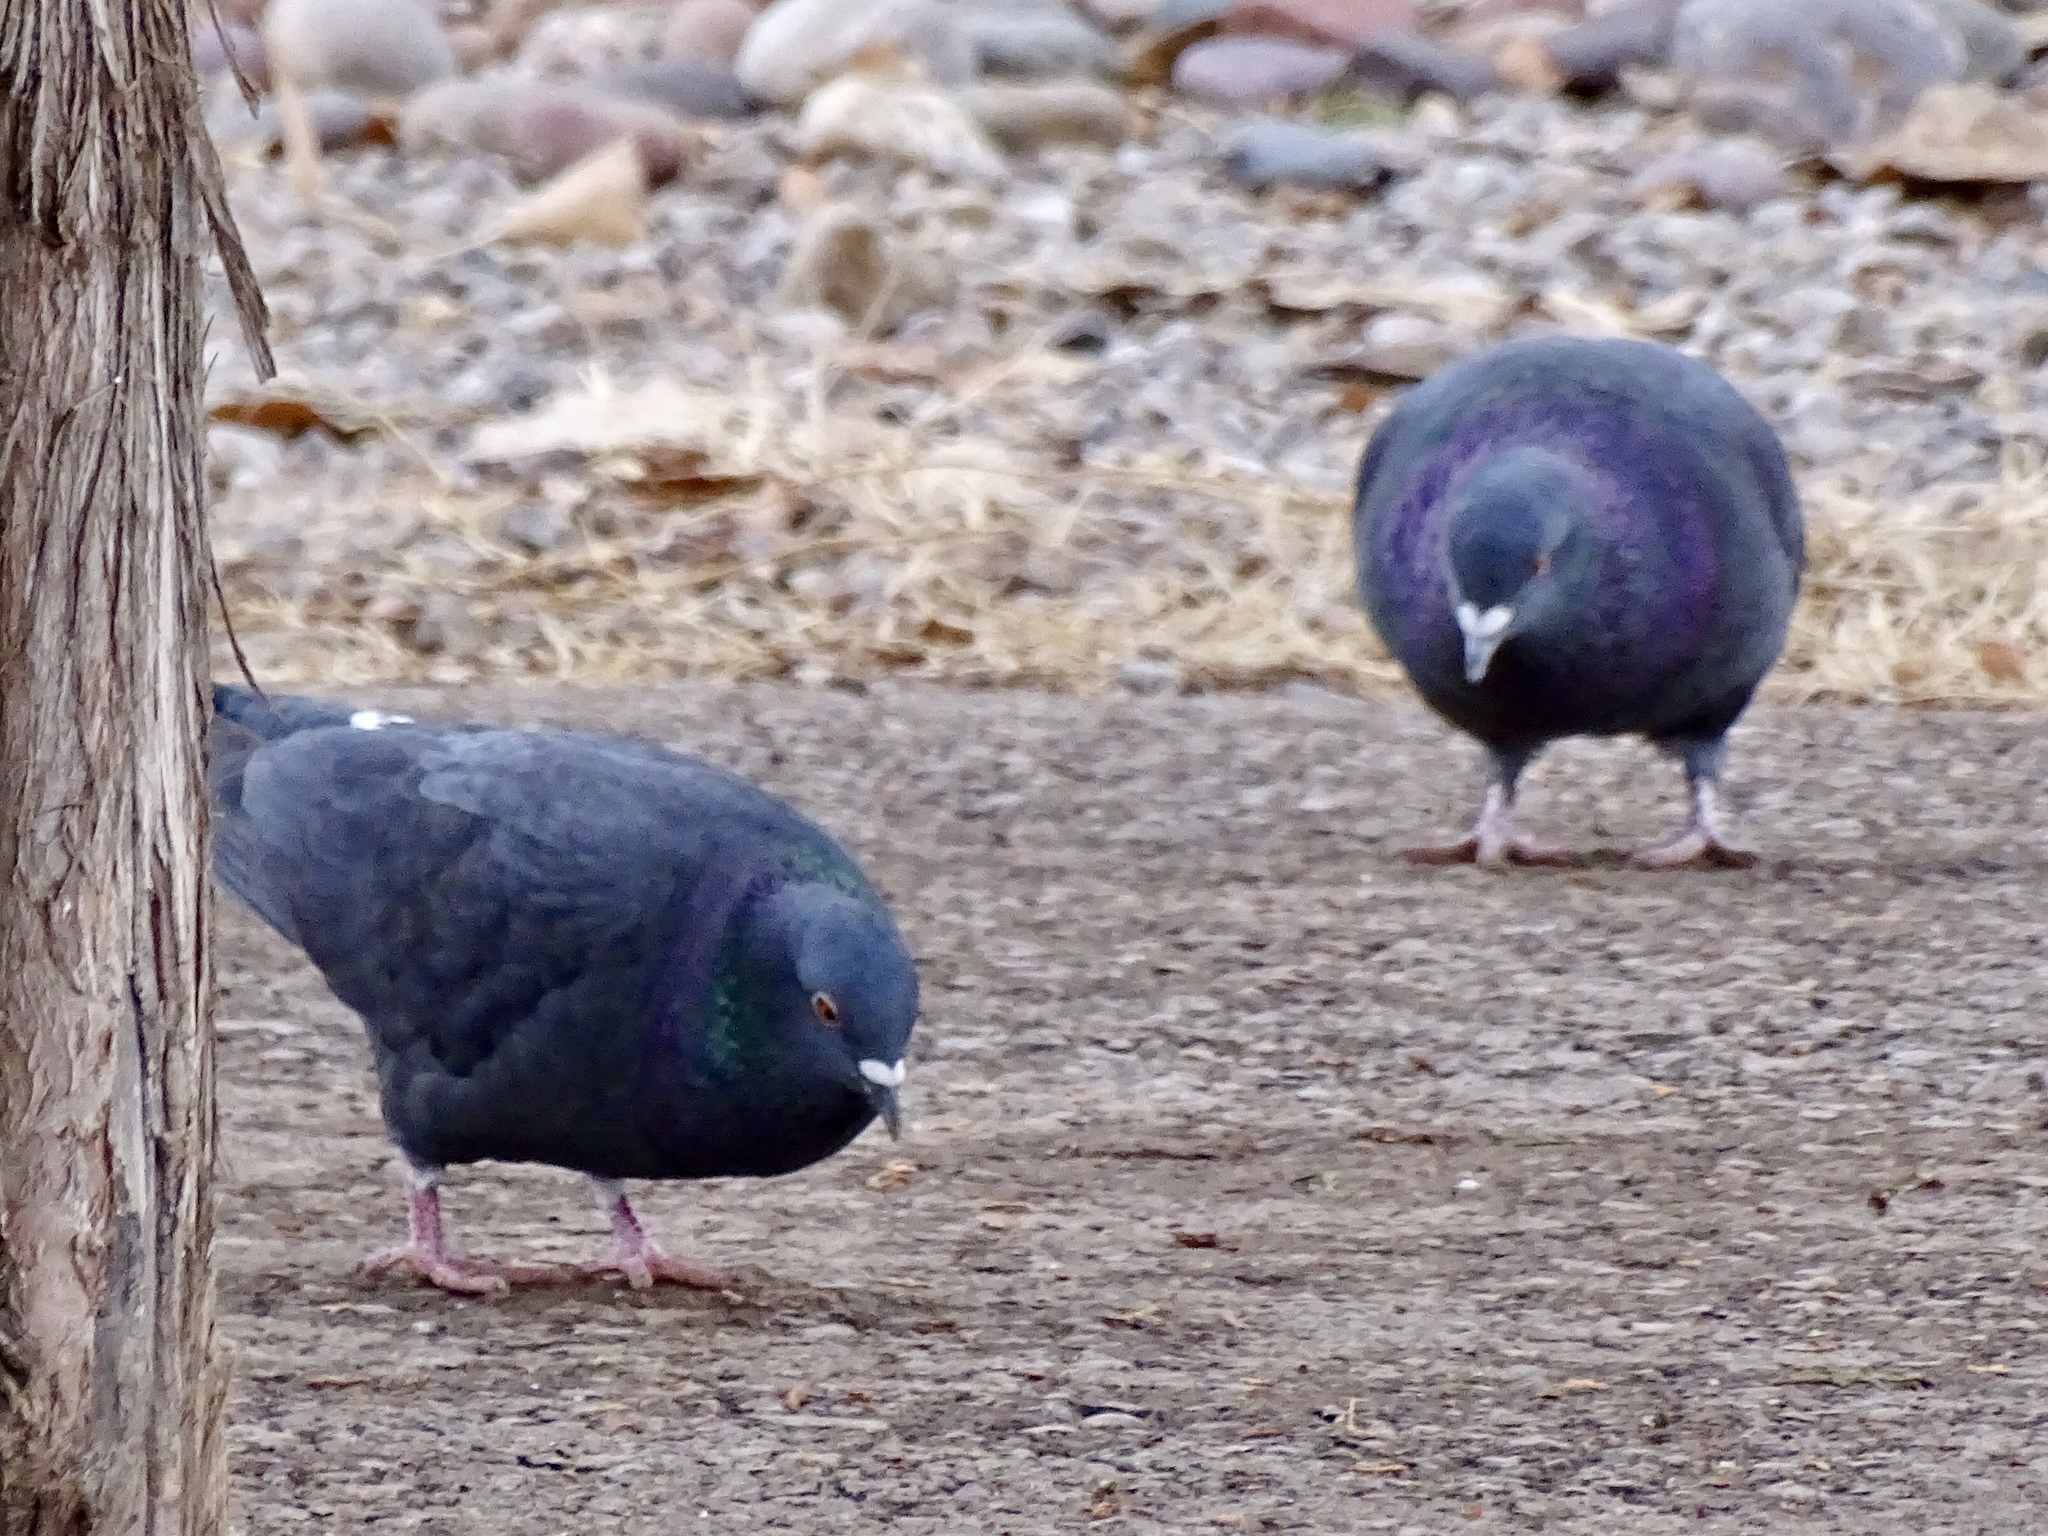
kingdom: Animalia
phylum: Chordata
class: Aves
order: Columbiformes
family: Columbidae
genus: Columba
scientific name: Columba livia
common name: Rock pigeon
